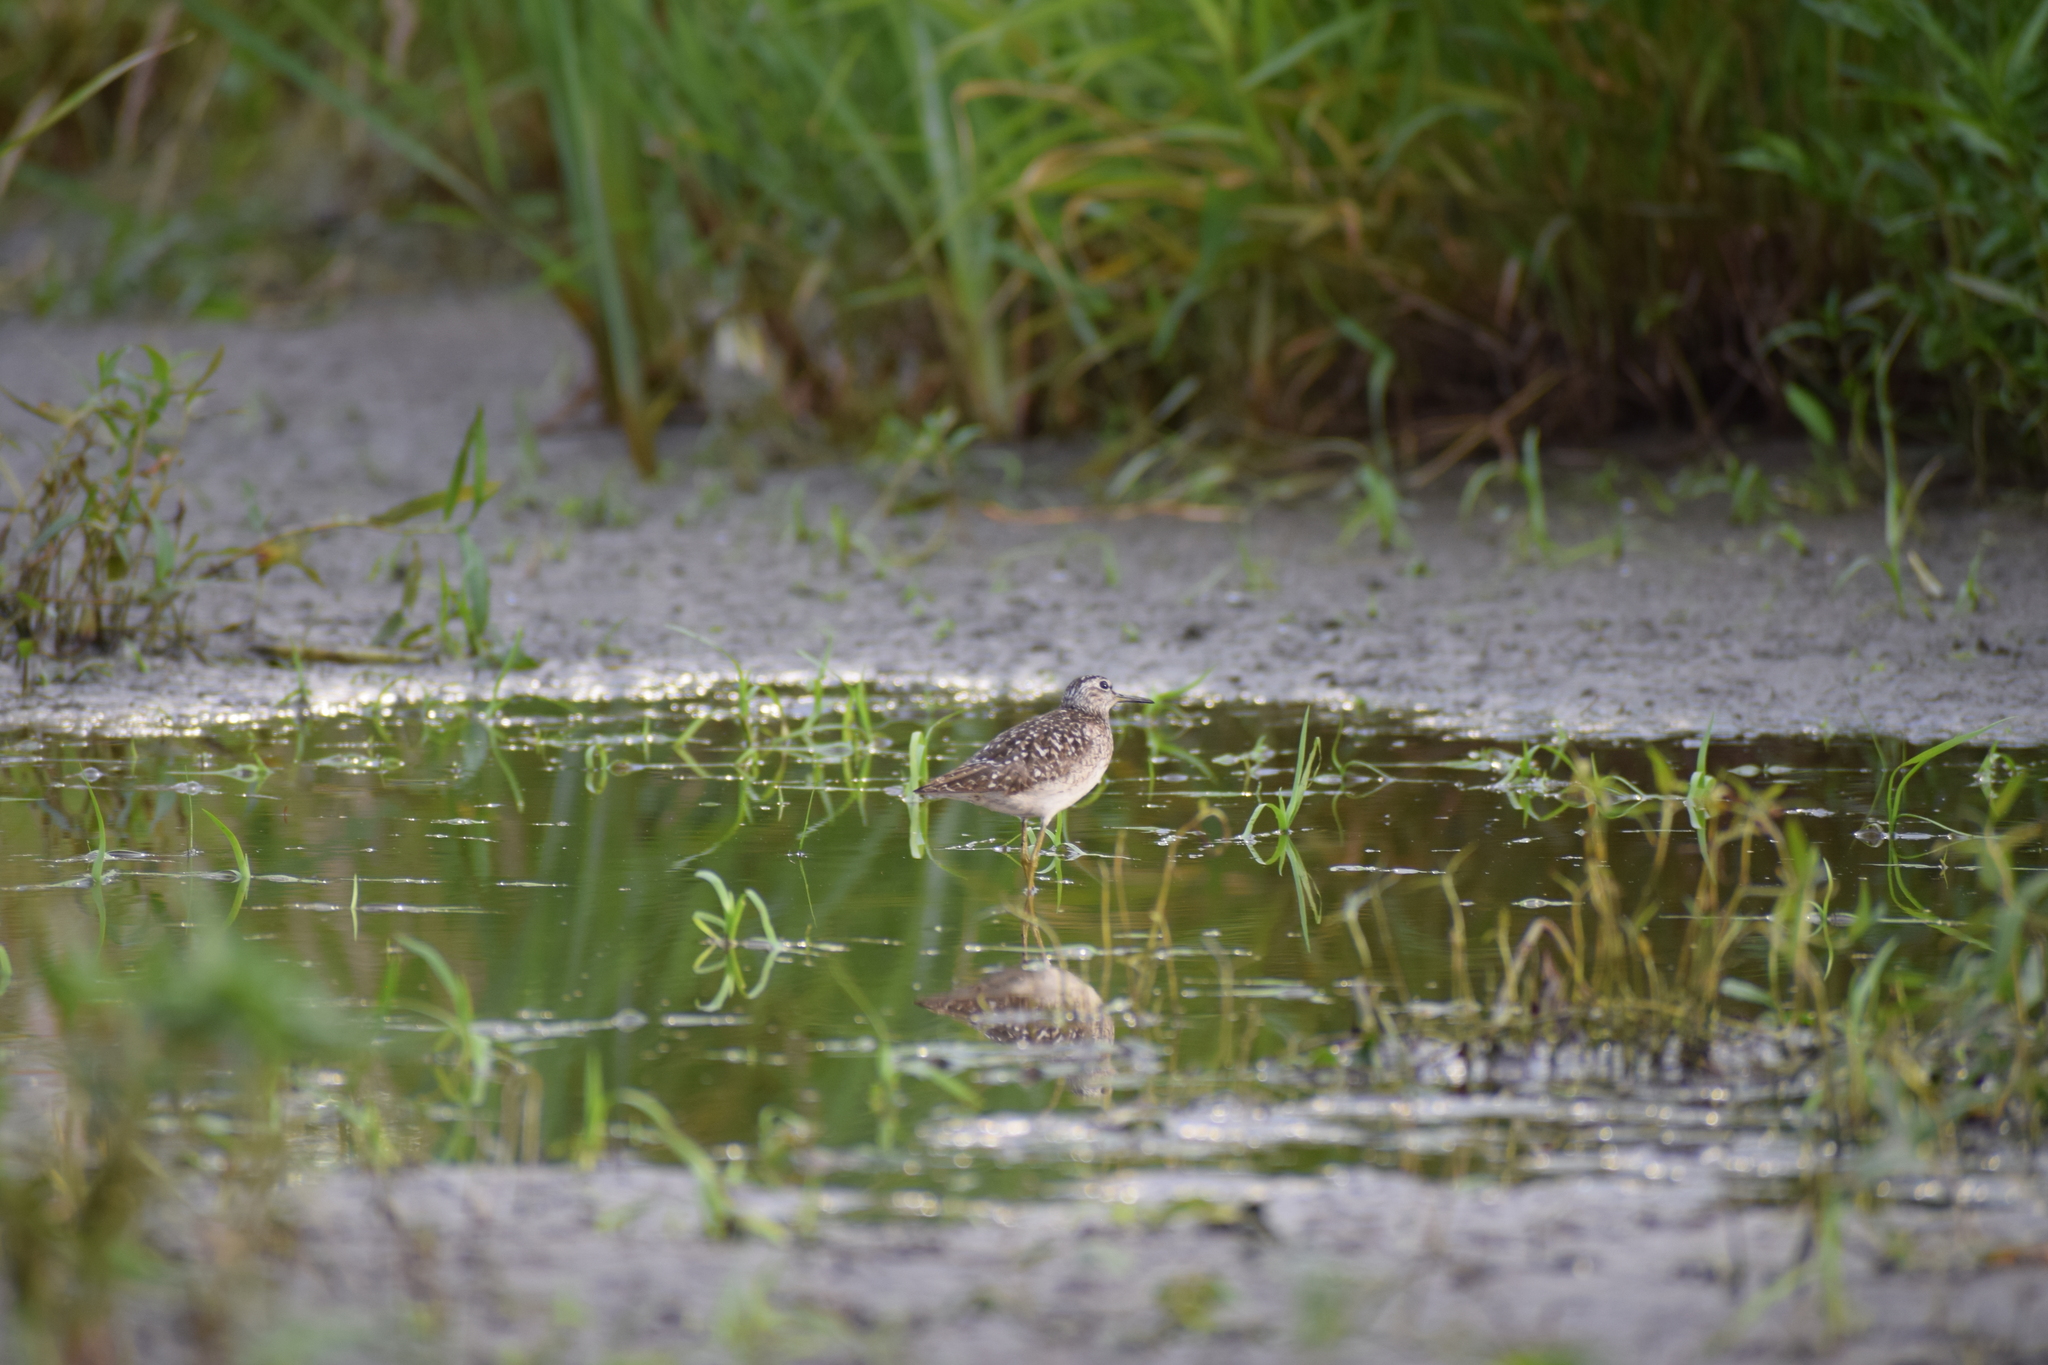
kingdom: Animalia
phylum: Chordata
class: Aves
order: Charadriiformes
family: Scolopacidae
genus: Tringa
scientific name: Tringa glareola
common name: Wood sandpiper
